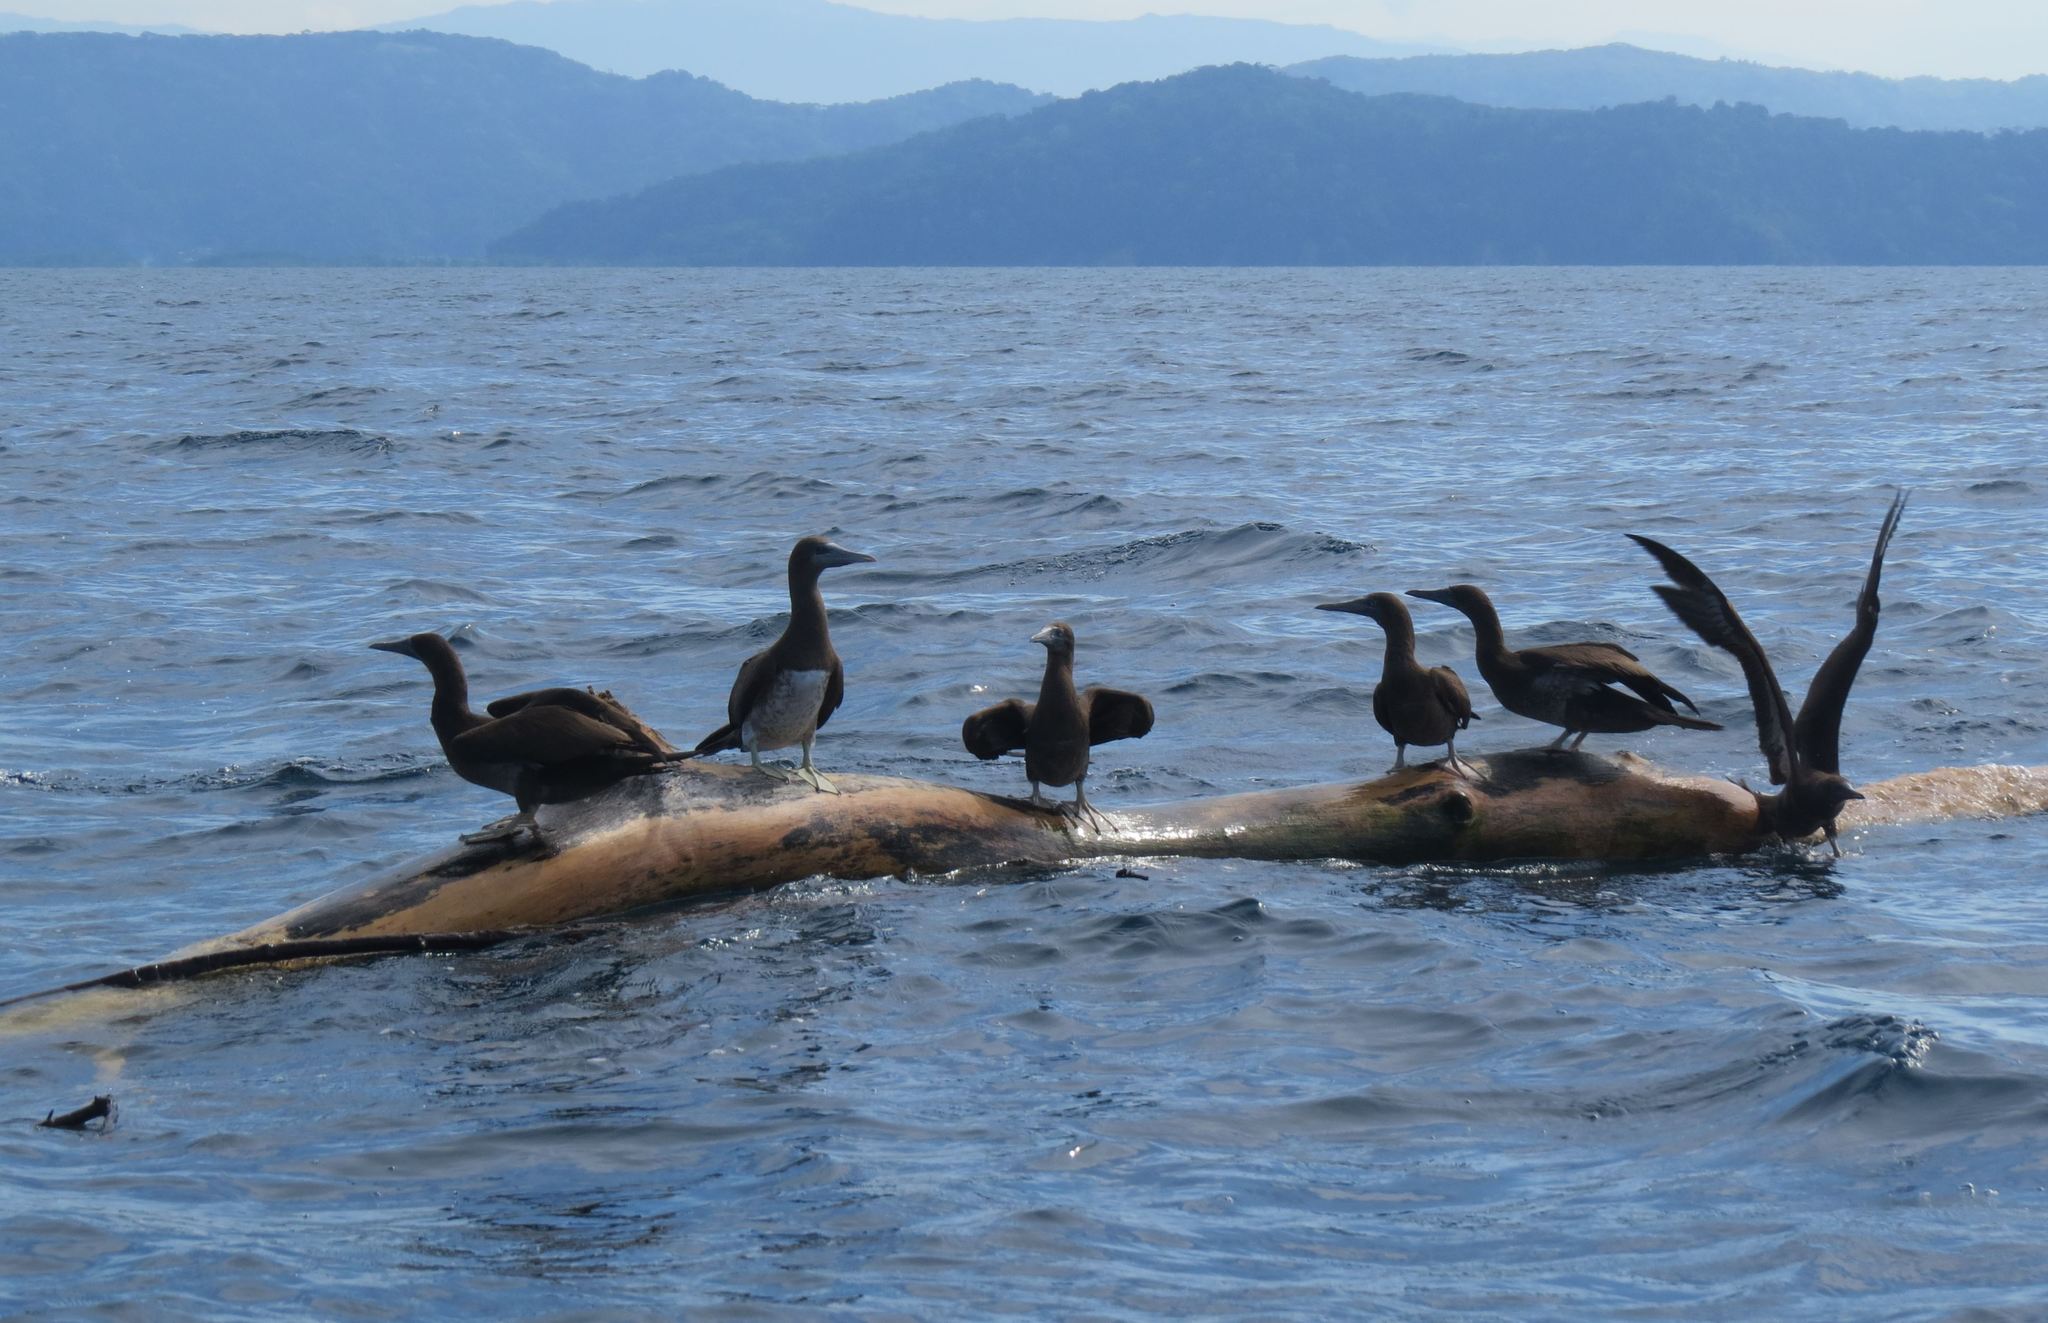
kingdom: Animalia
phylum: Chordata
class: Aves
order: Suliformes
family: Sulidae
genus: Sula
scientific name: Sula leucogaster
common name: Brown booby
